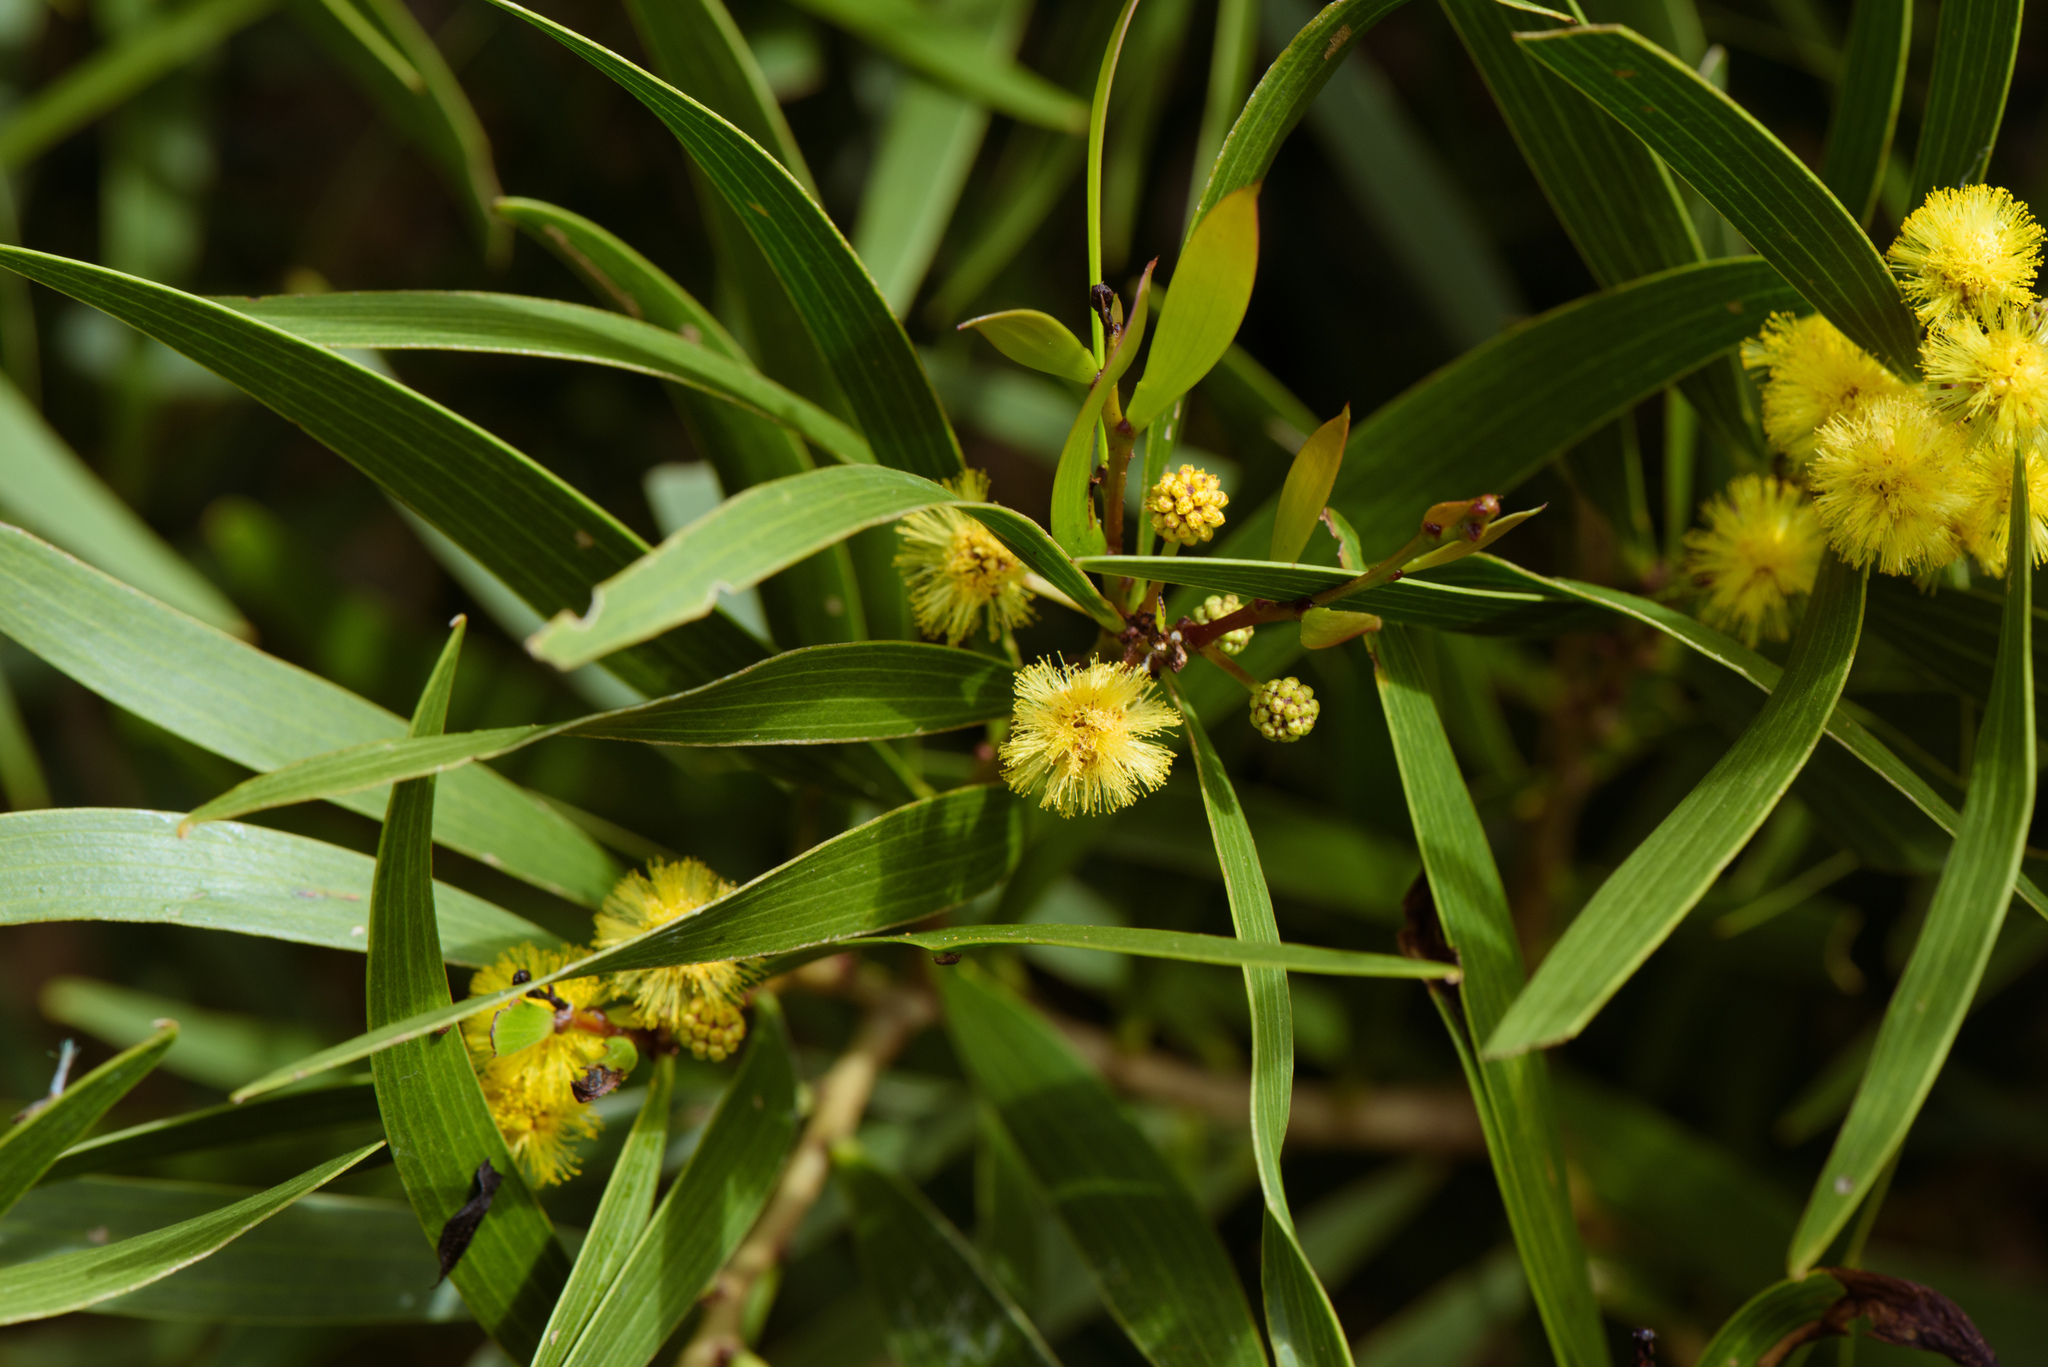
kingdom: Plantae
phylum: Tracheophyta
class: Magnoliopsida
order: Fabales
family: Fabaceae
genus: Acacia
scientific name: Acacia confusa
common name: Formosan koa
